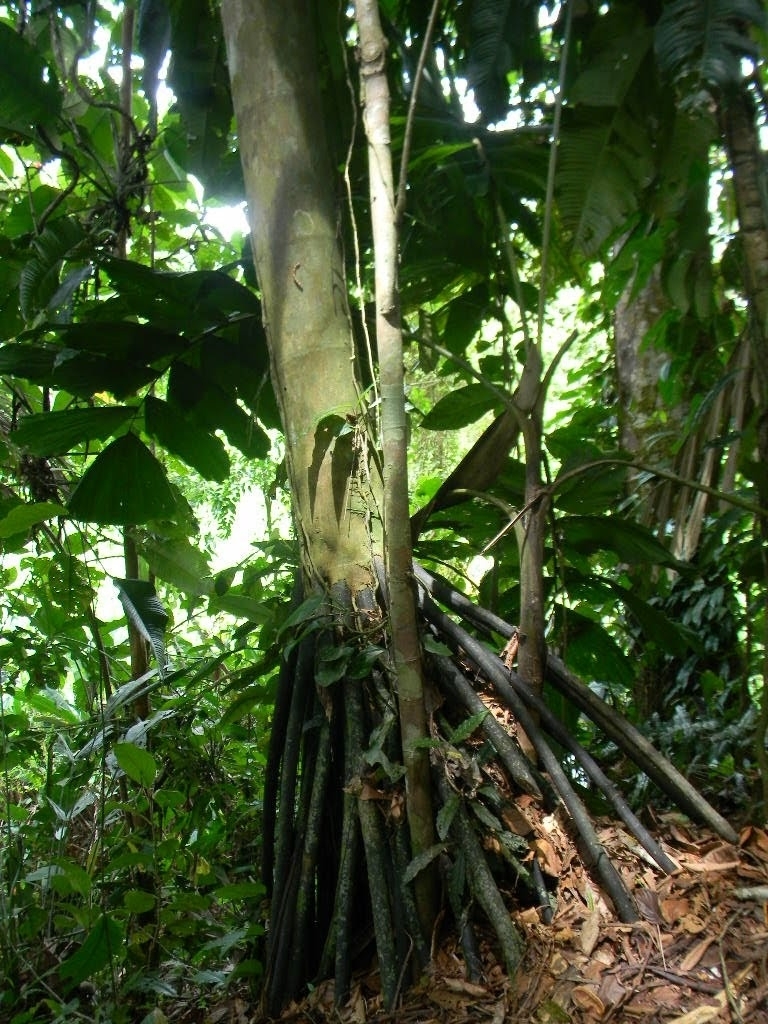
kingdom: Plantae
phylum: Tracheophyta
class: Liliopsida
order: Arecales
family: Arecaceae
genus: Iriartea
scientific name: Iriartea deltoidea
